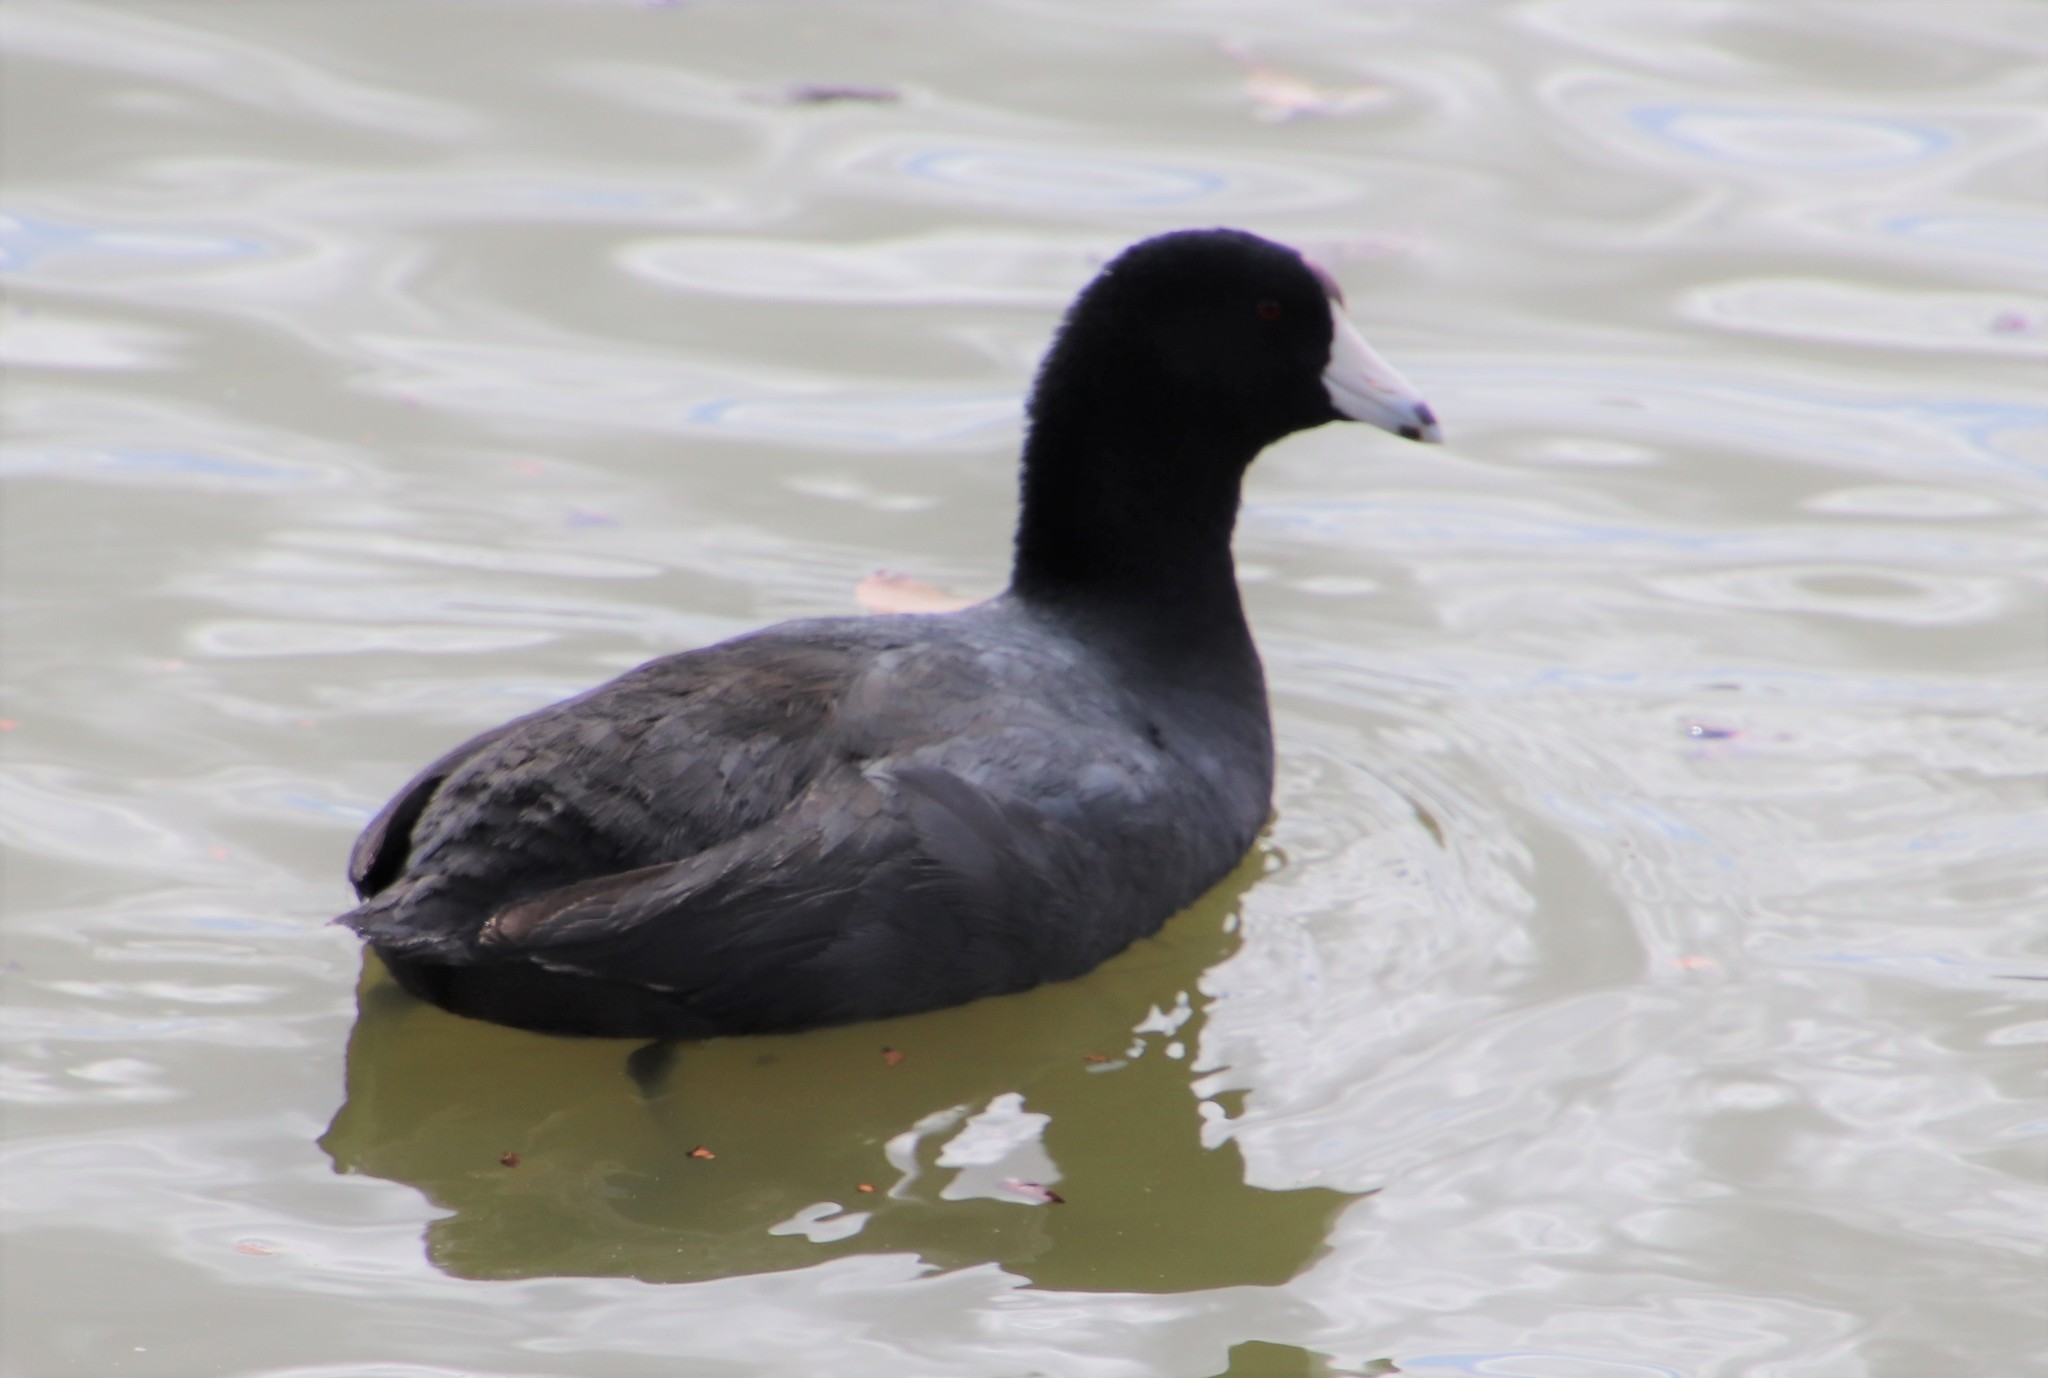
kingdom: Animalia
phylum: Chordata
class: Aves
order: Gruiformes
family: Rallidae
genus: Fulica
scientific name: Fulica americana
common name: American coot
